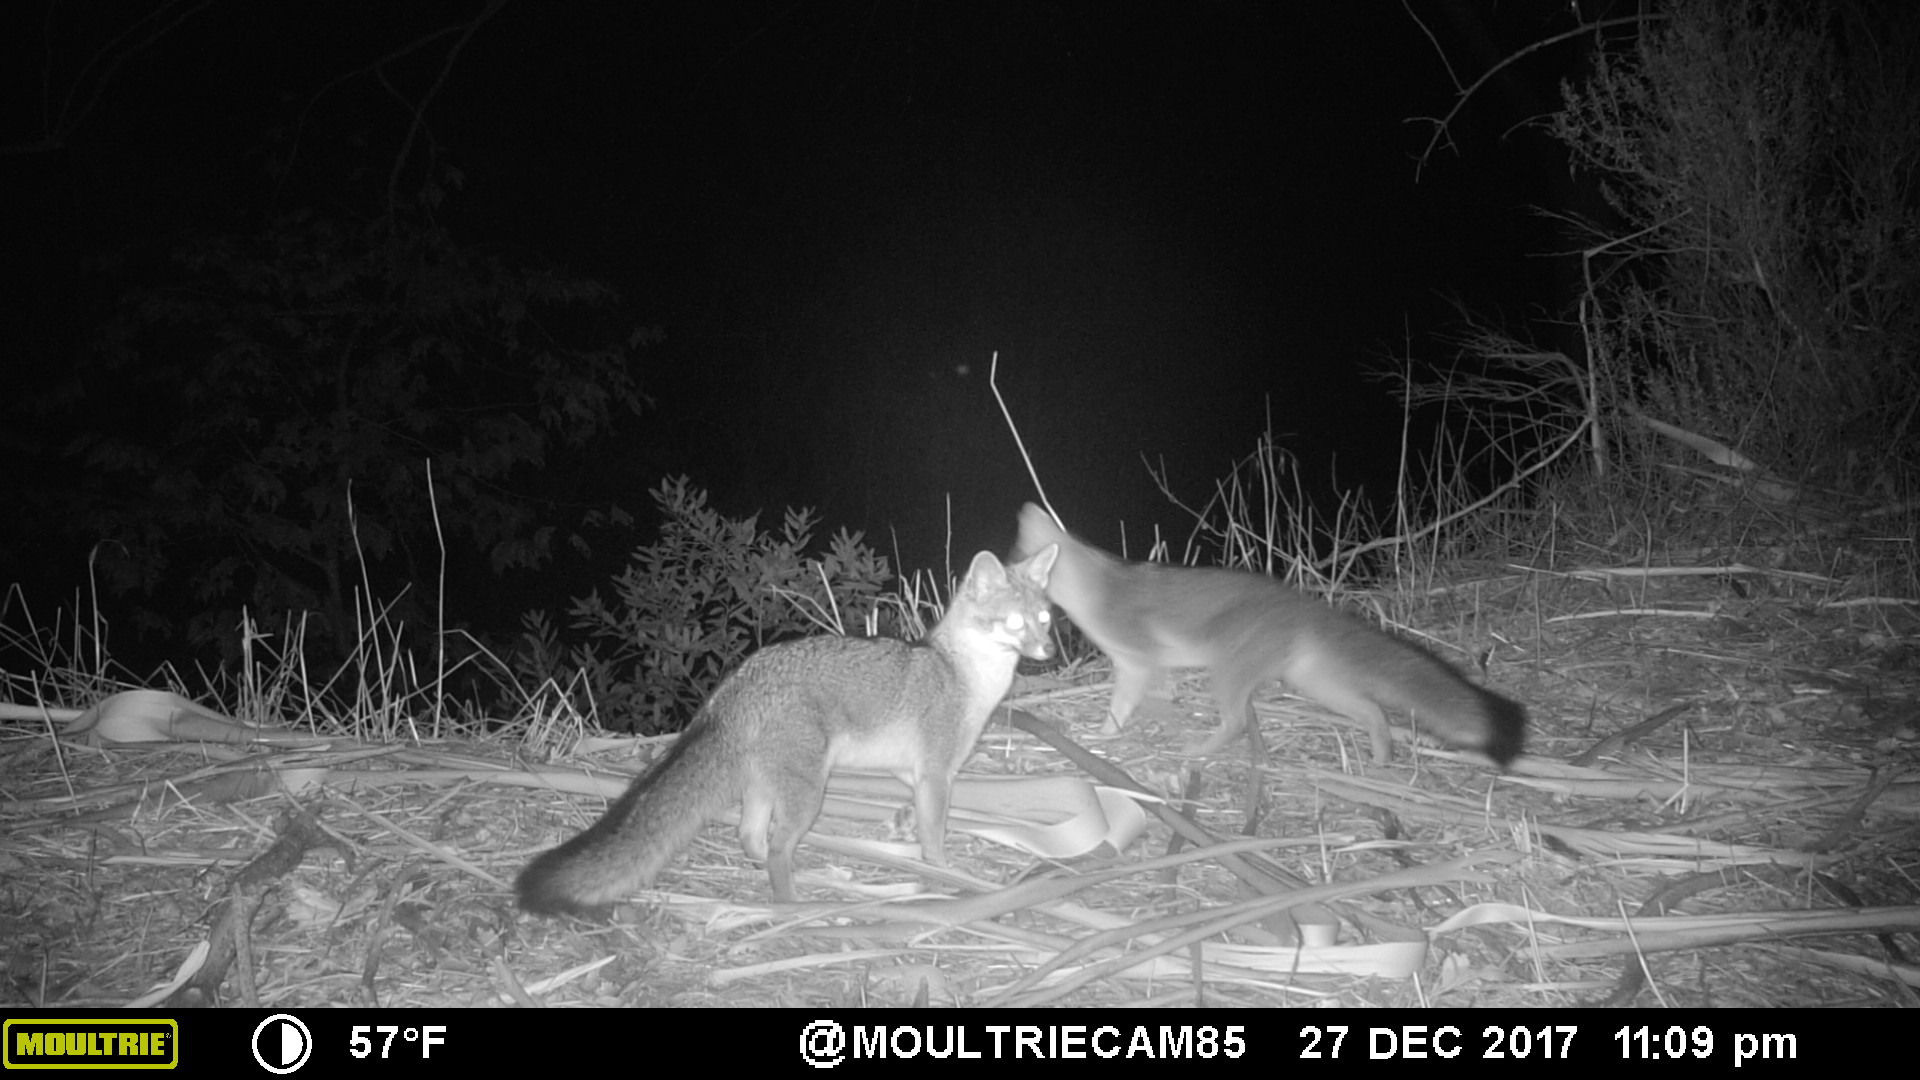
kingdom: Animalia
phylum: Chordata
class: Mammalia
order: Carnivora
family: Canidae
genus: Urocyon
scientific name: Urocyon cinereoargenteus
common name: Gray fox
